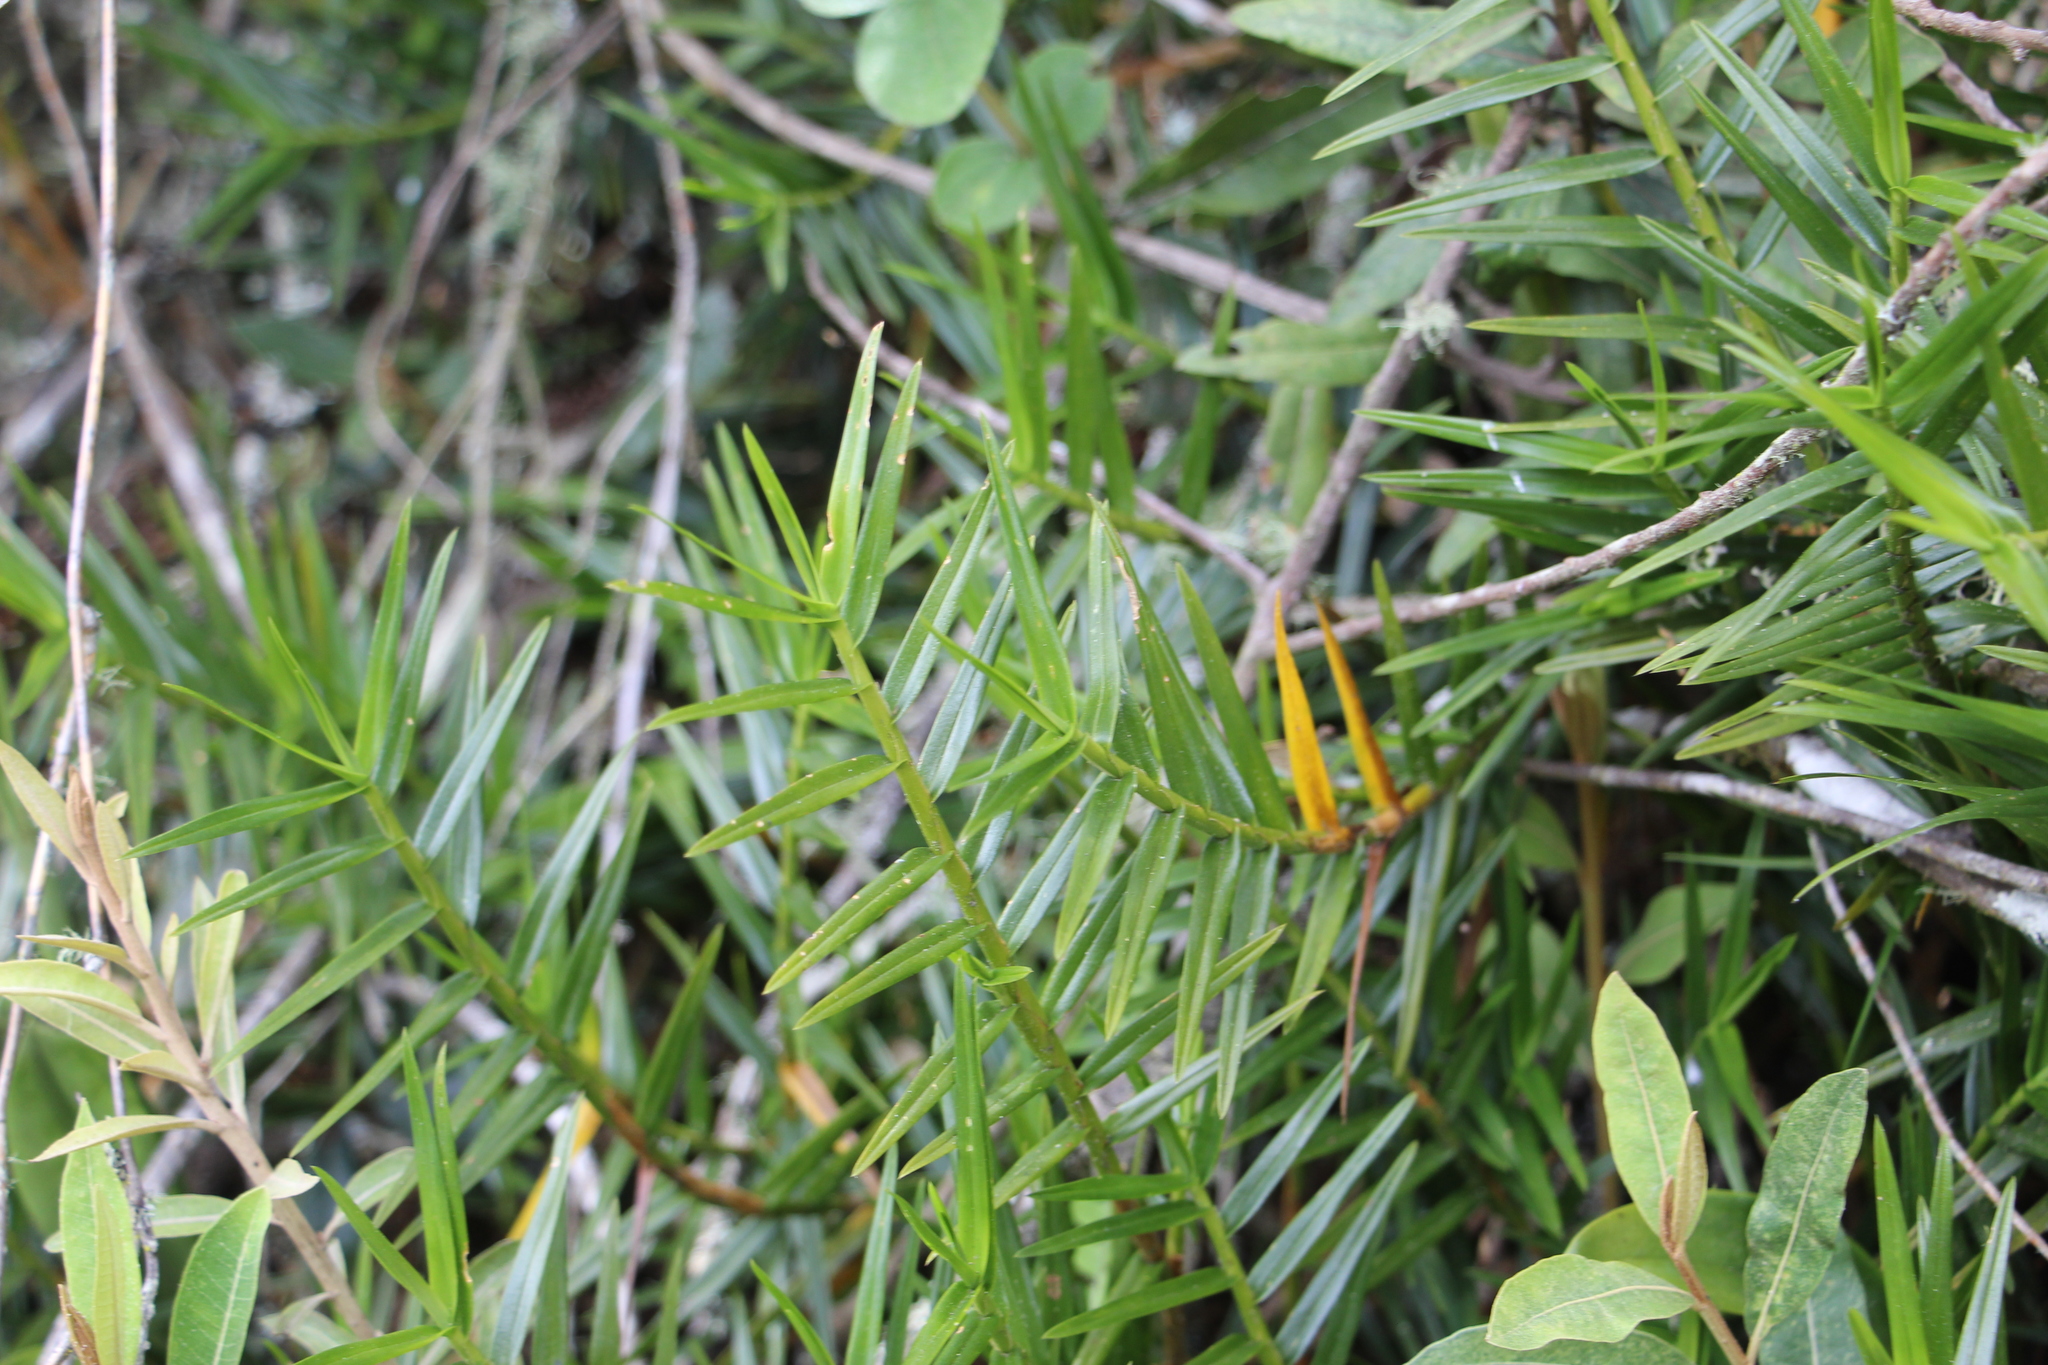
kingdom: Plantae
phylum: Tracheophyta
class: Liliopsida
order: Asparagales
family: Orchidaceae
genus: Maxillaria
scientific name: Maxillaria graminifolia
